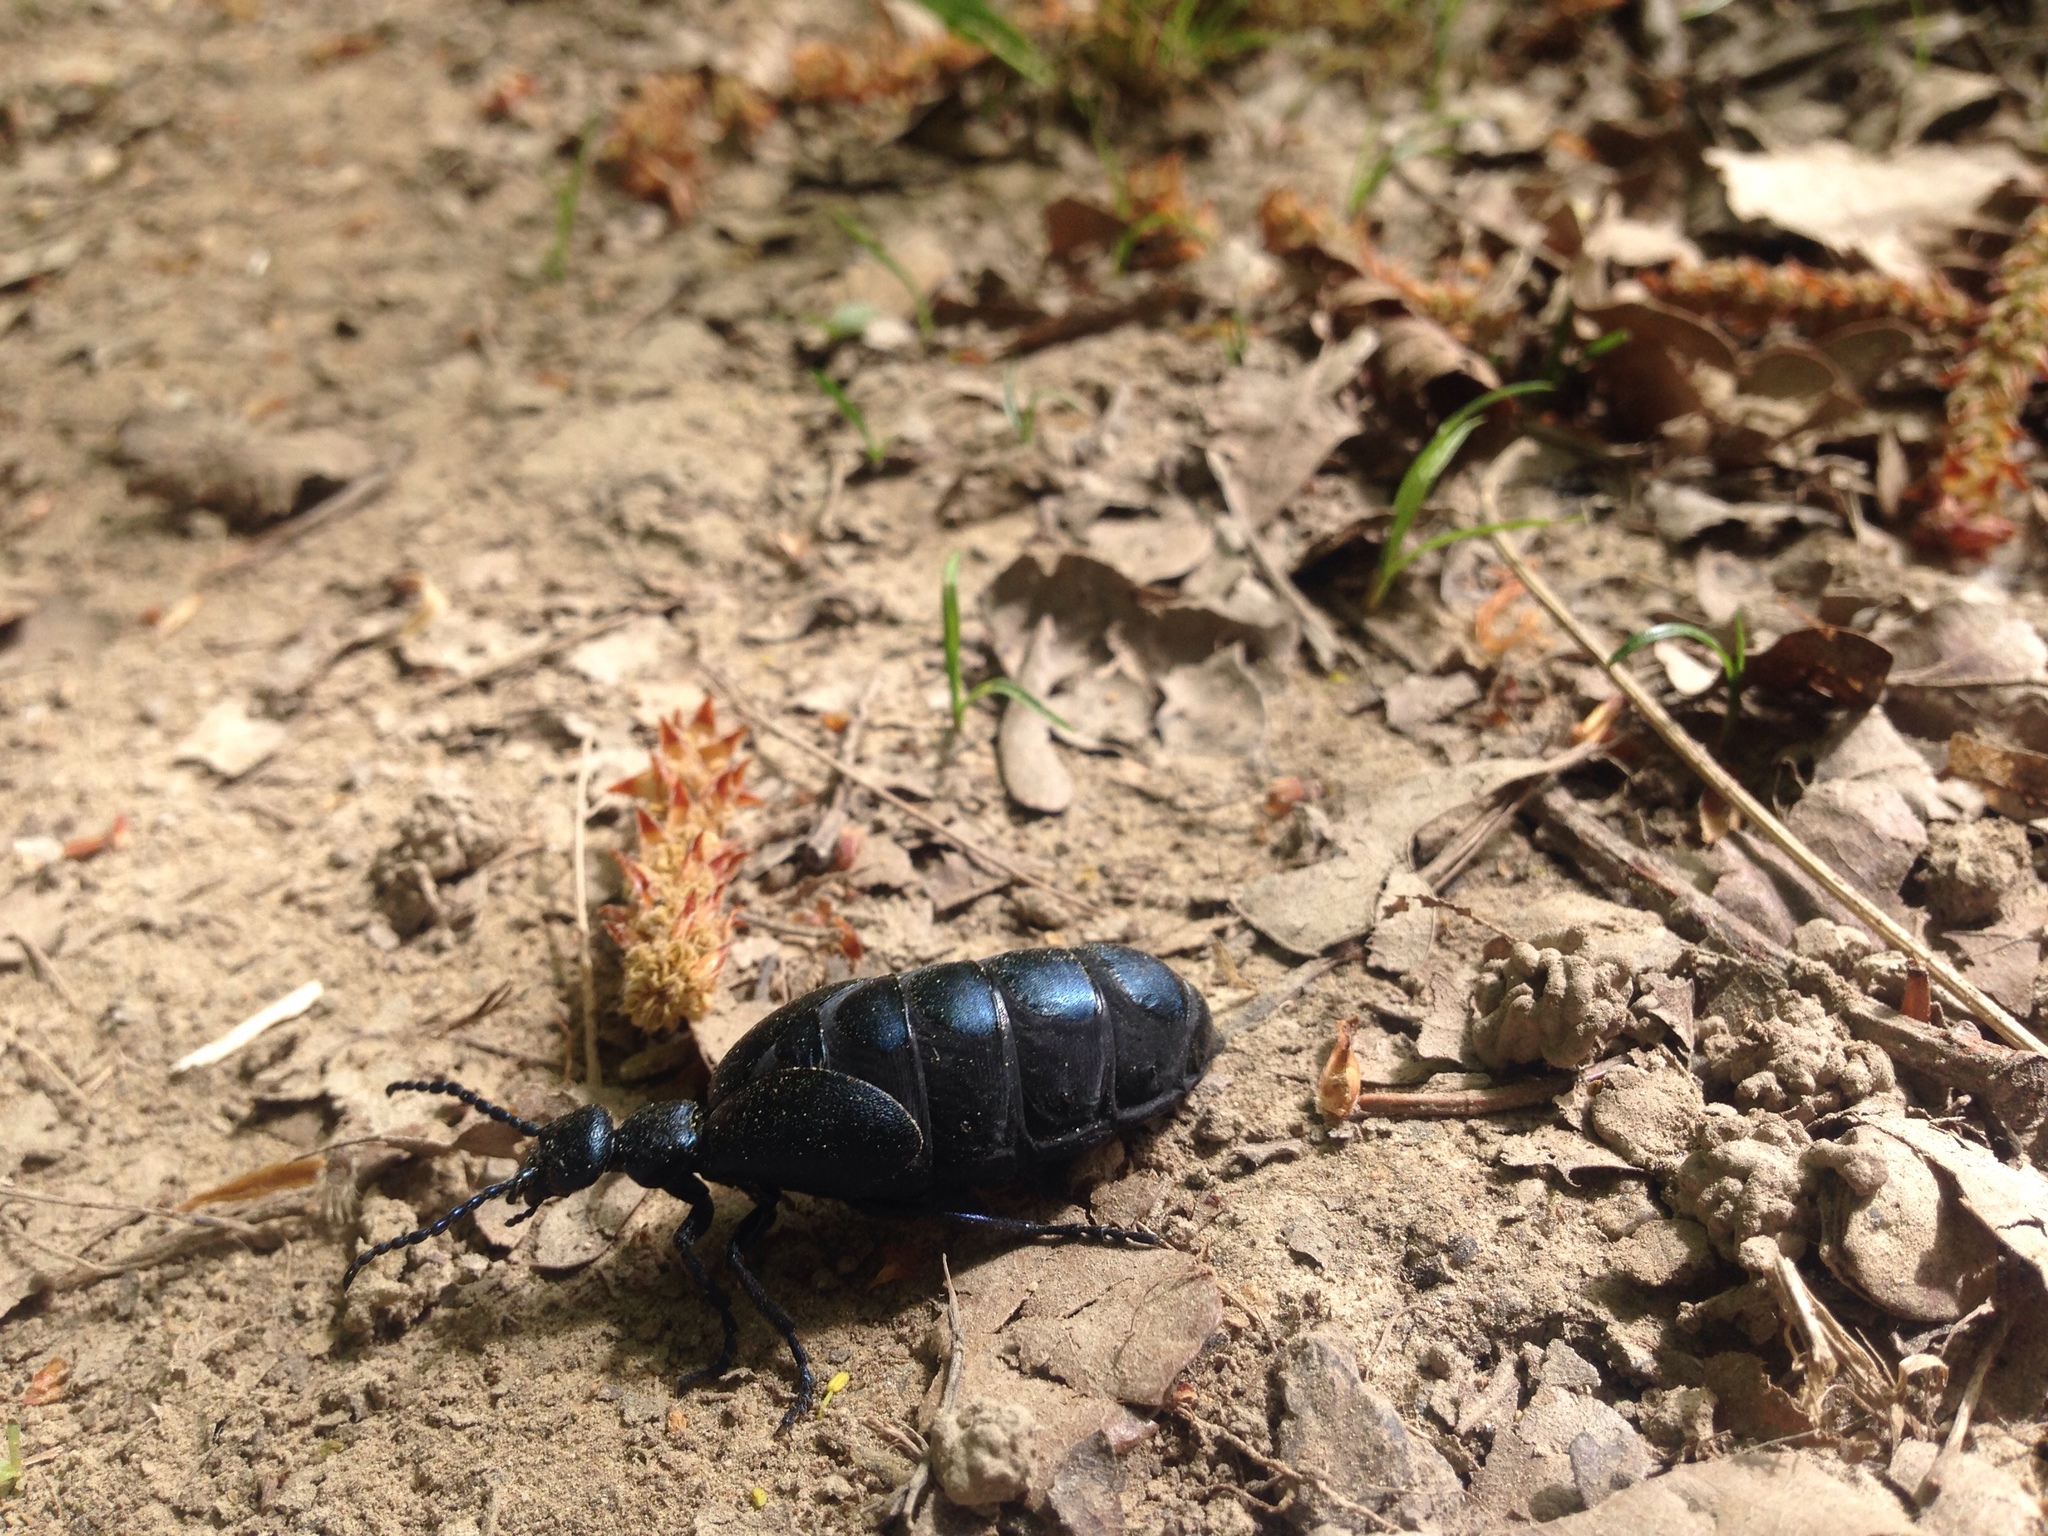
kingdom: Animalia
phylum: Arthropoda
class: Insecta
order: Coleoptera
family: Meloidae
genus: Meloe
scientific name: Meloe proscarabaeus
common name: Black oil-beetle
